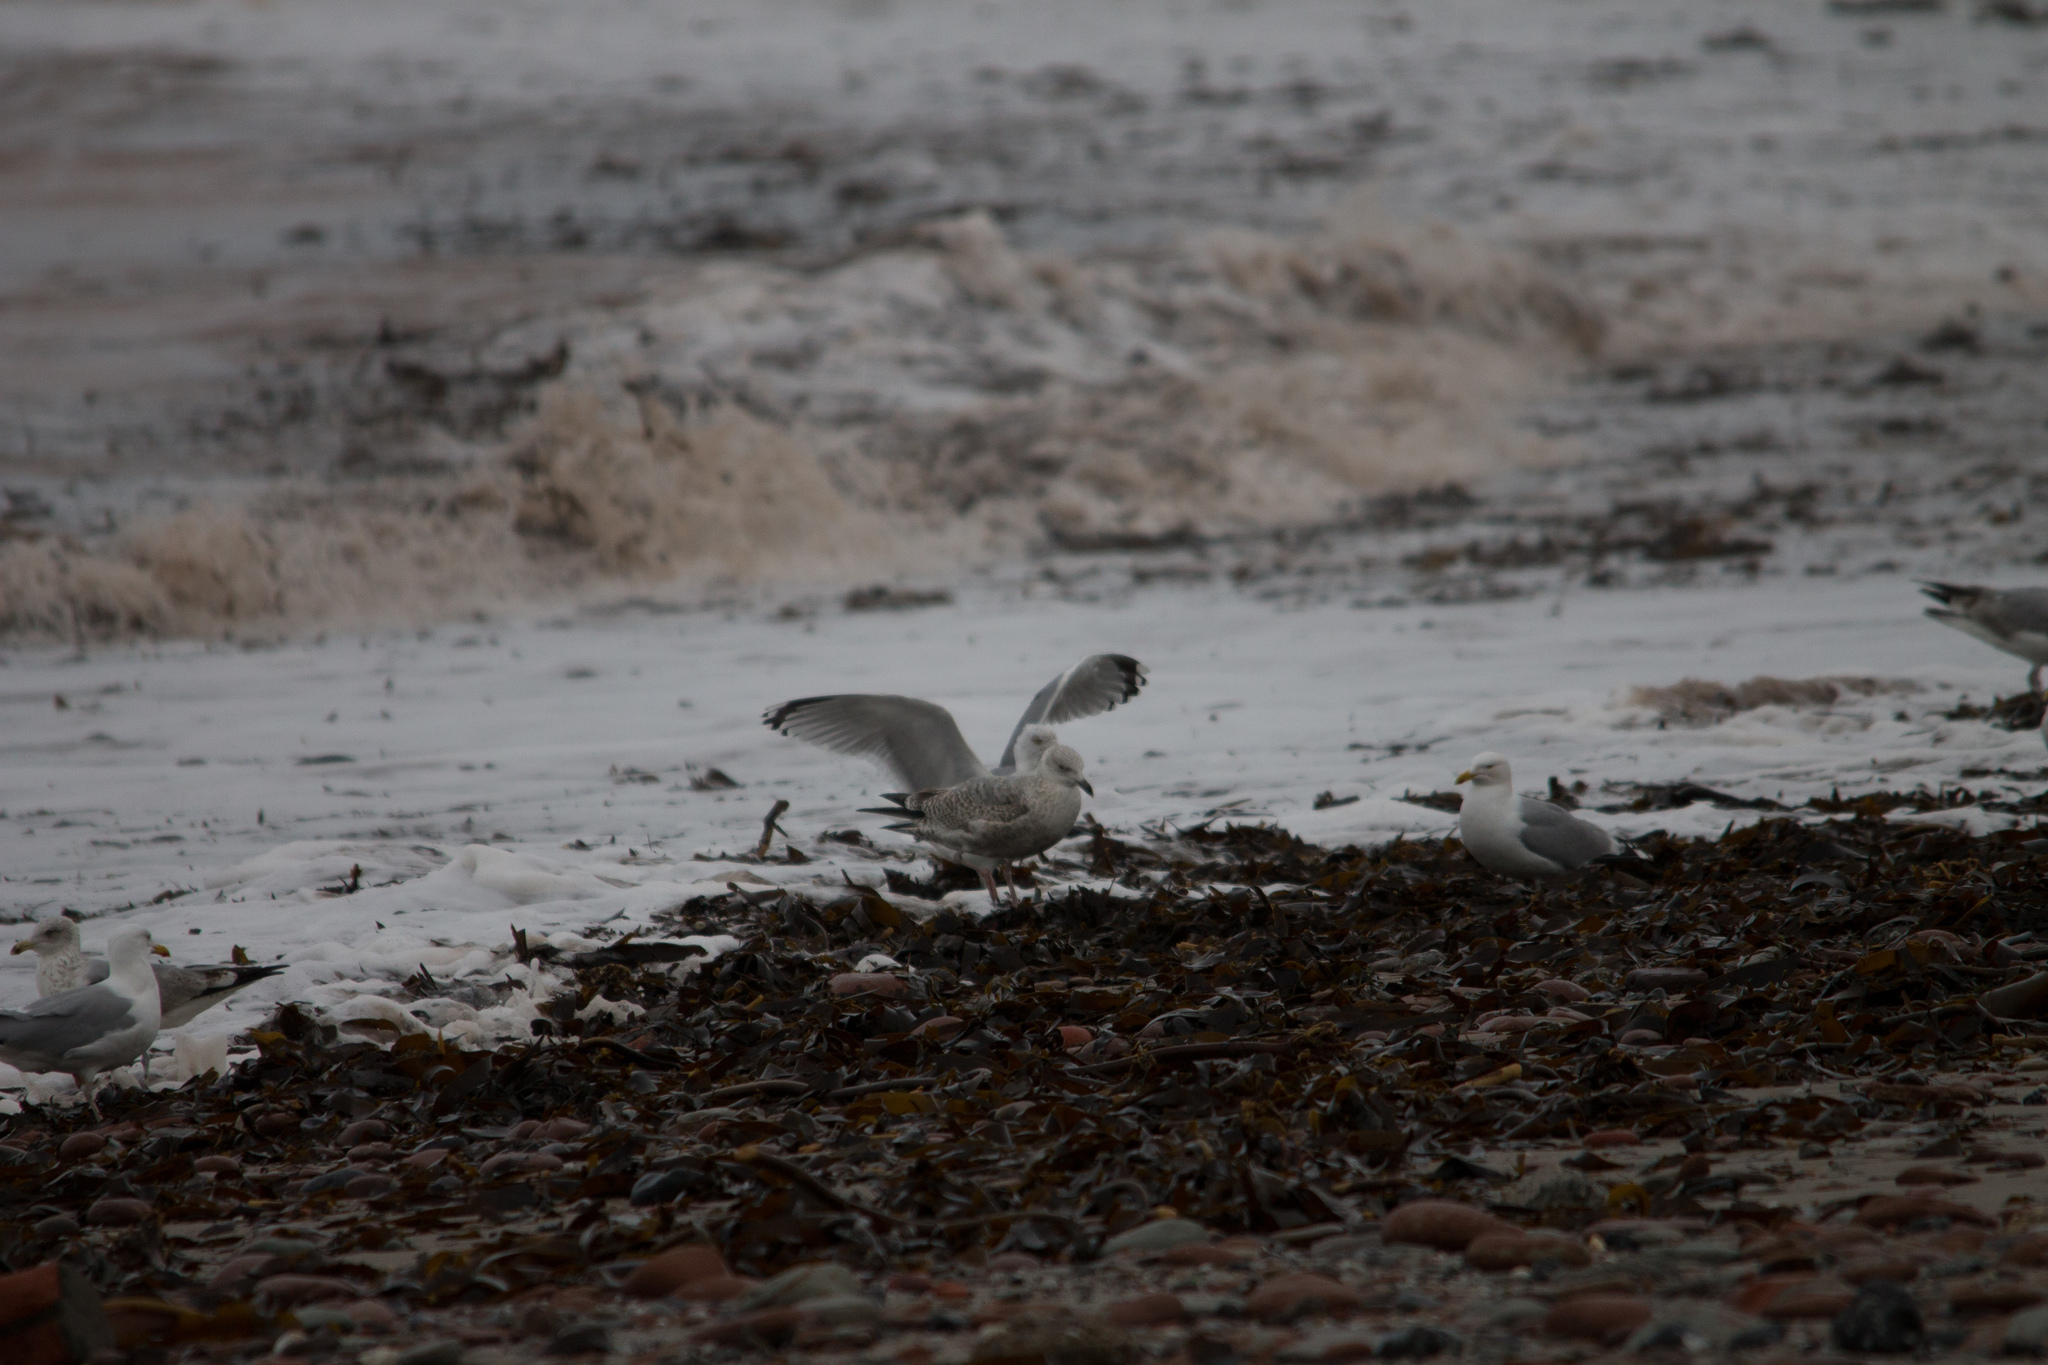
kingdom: Animalia
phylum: Chordata
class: Aves
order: Charadriiformes
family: Laridae
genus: Larus
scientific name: Larus argentatus
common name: Herring gull
